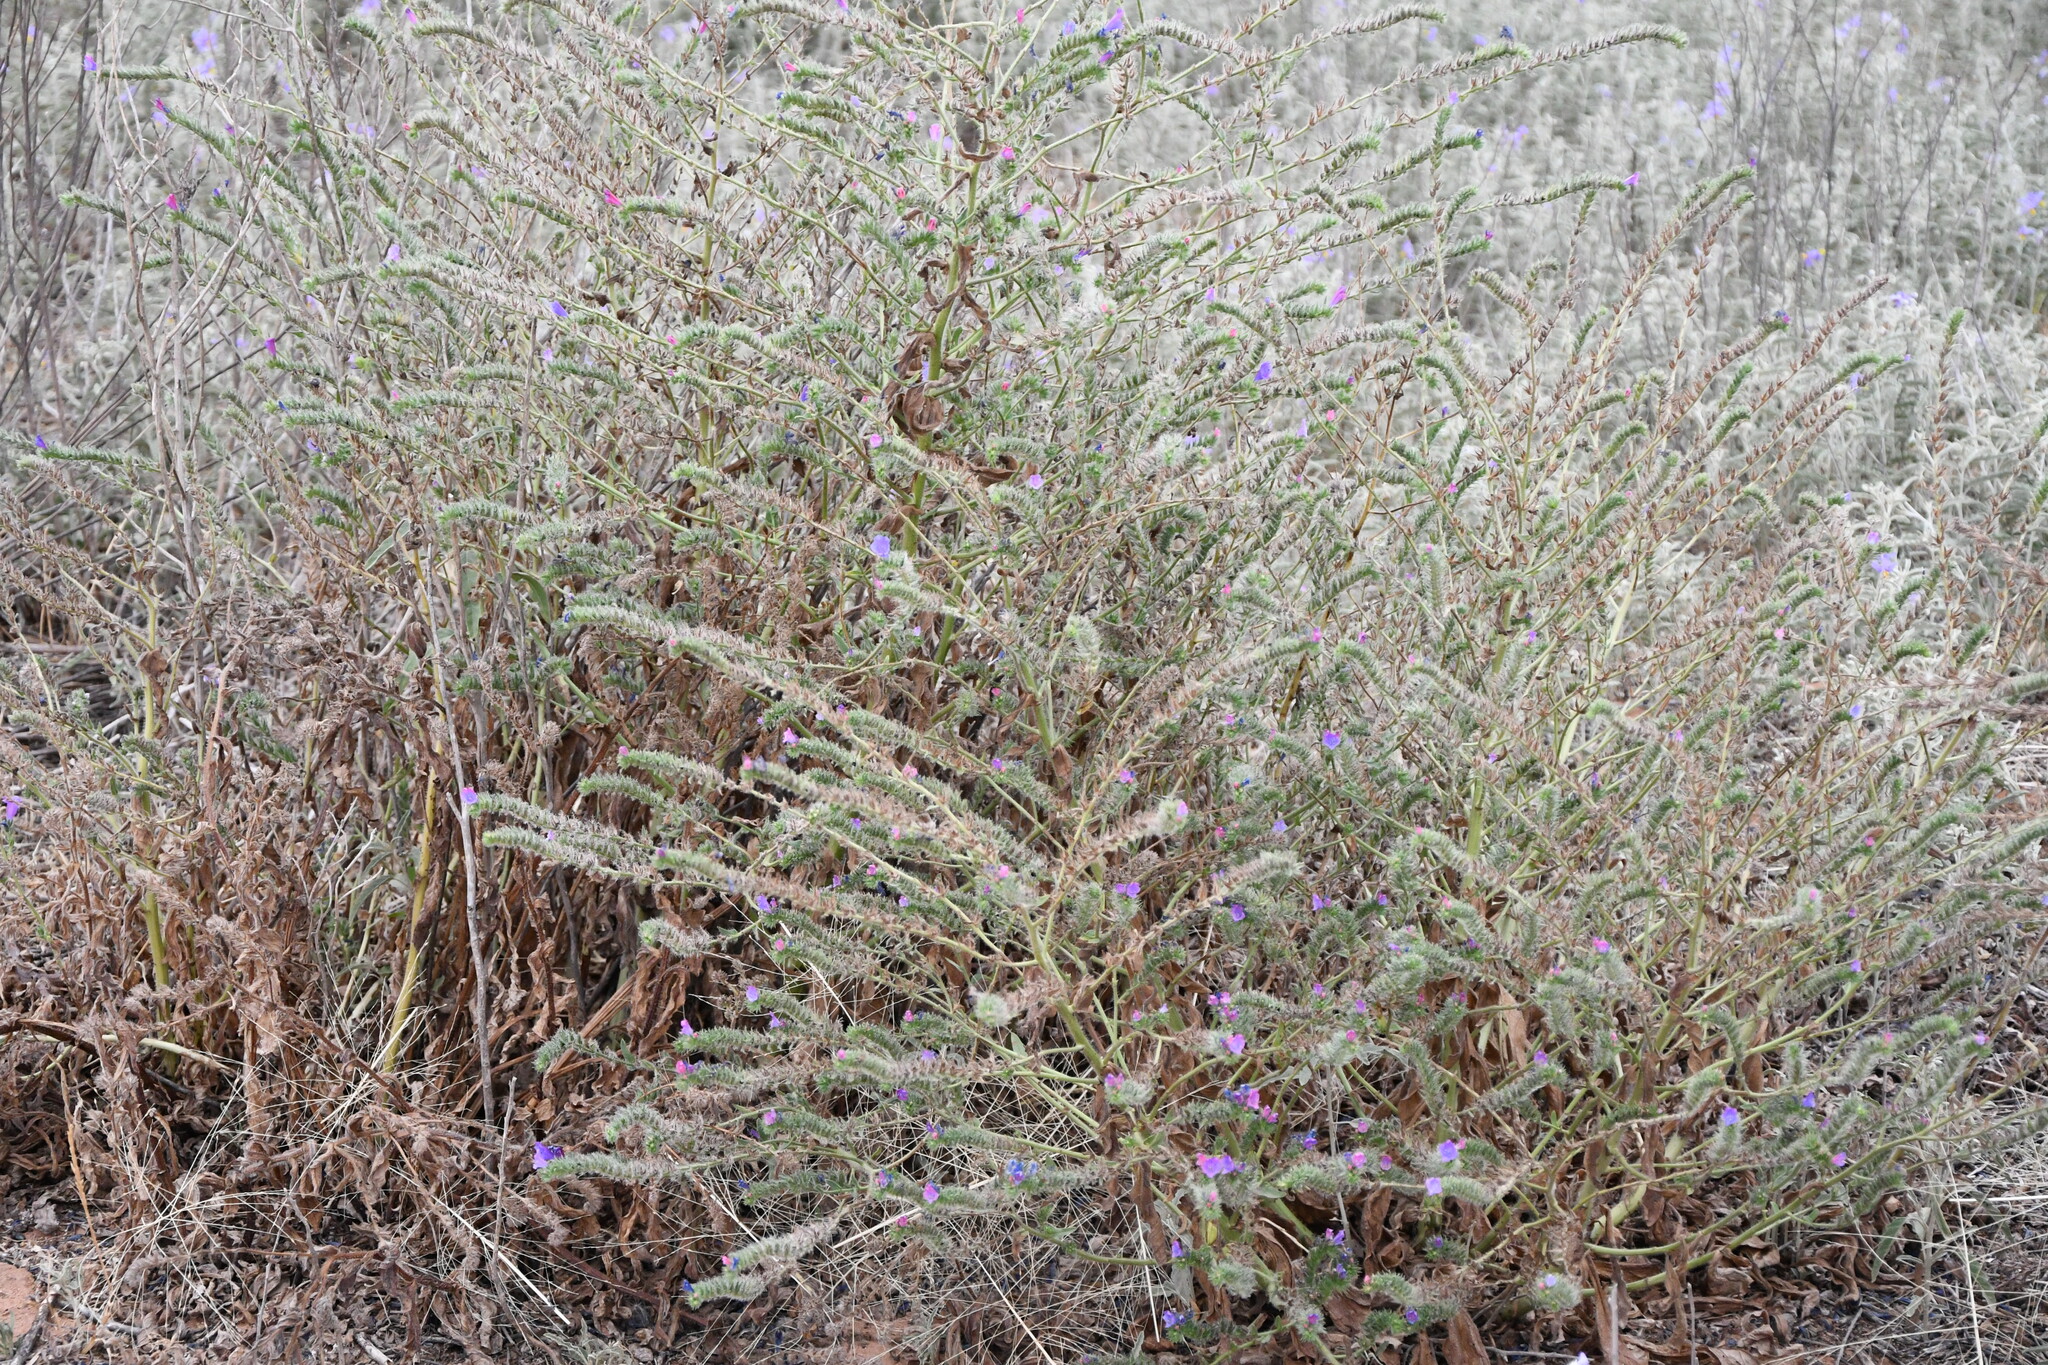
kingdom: Plantae
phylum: Tracheophyta
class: Magnoliopsida
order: Boraginales
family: Boraginaceae
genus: Echium
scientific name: Echium plantagineum
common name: Purple viper's-bugloss
